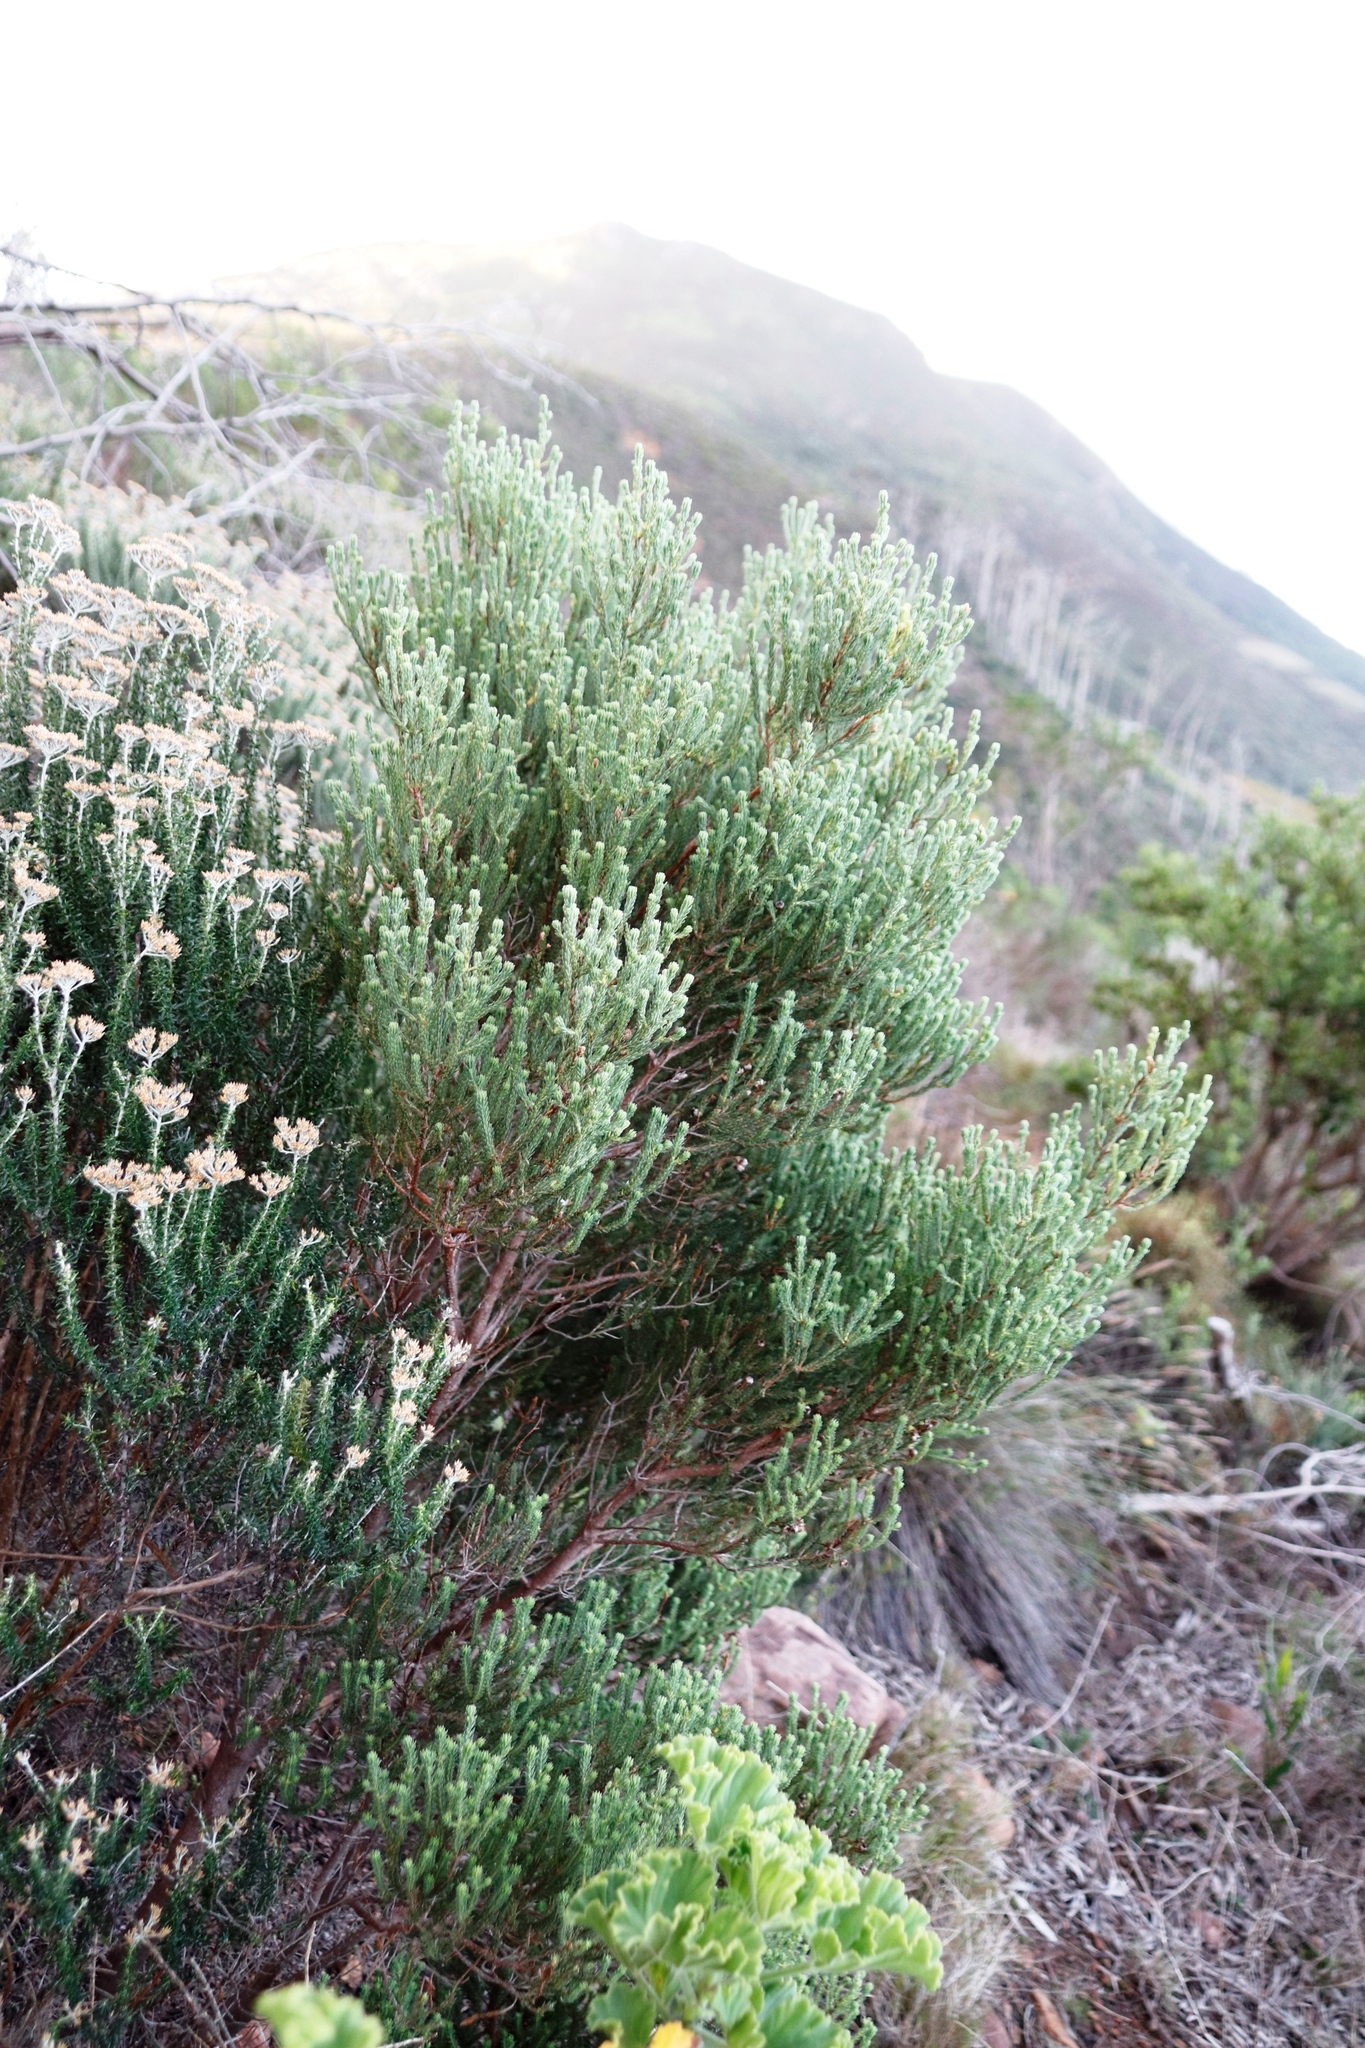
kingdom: Plantae
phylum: Tracheophyta
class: Magnoliopsida
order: Ericales
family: Ericaceae
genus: Erica
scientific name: Erica baccans
